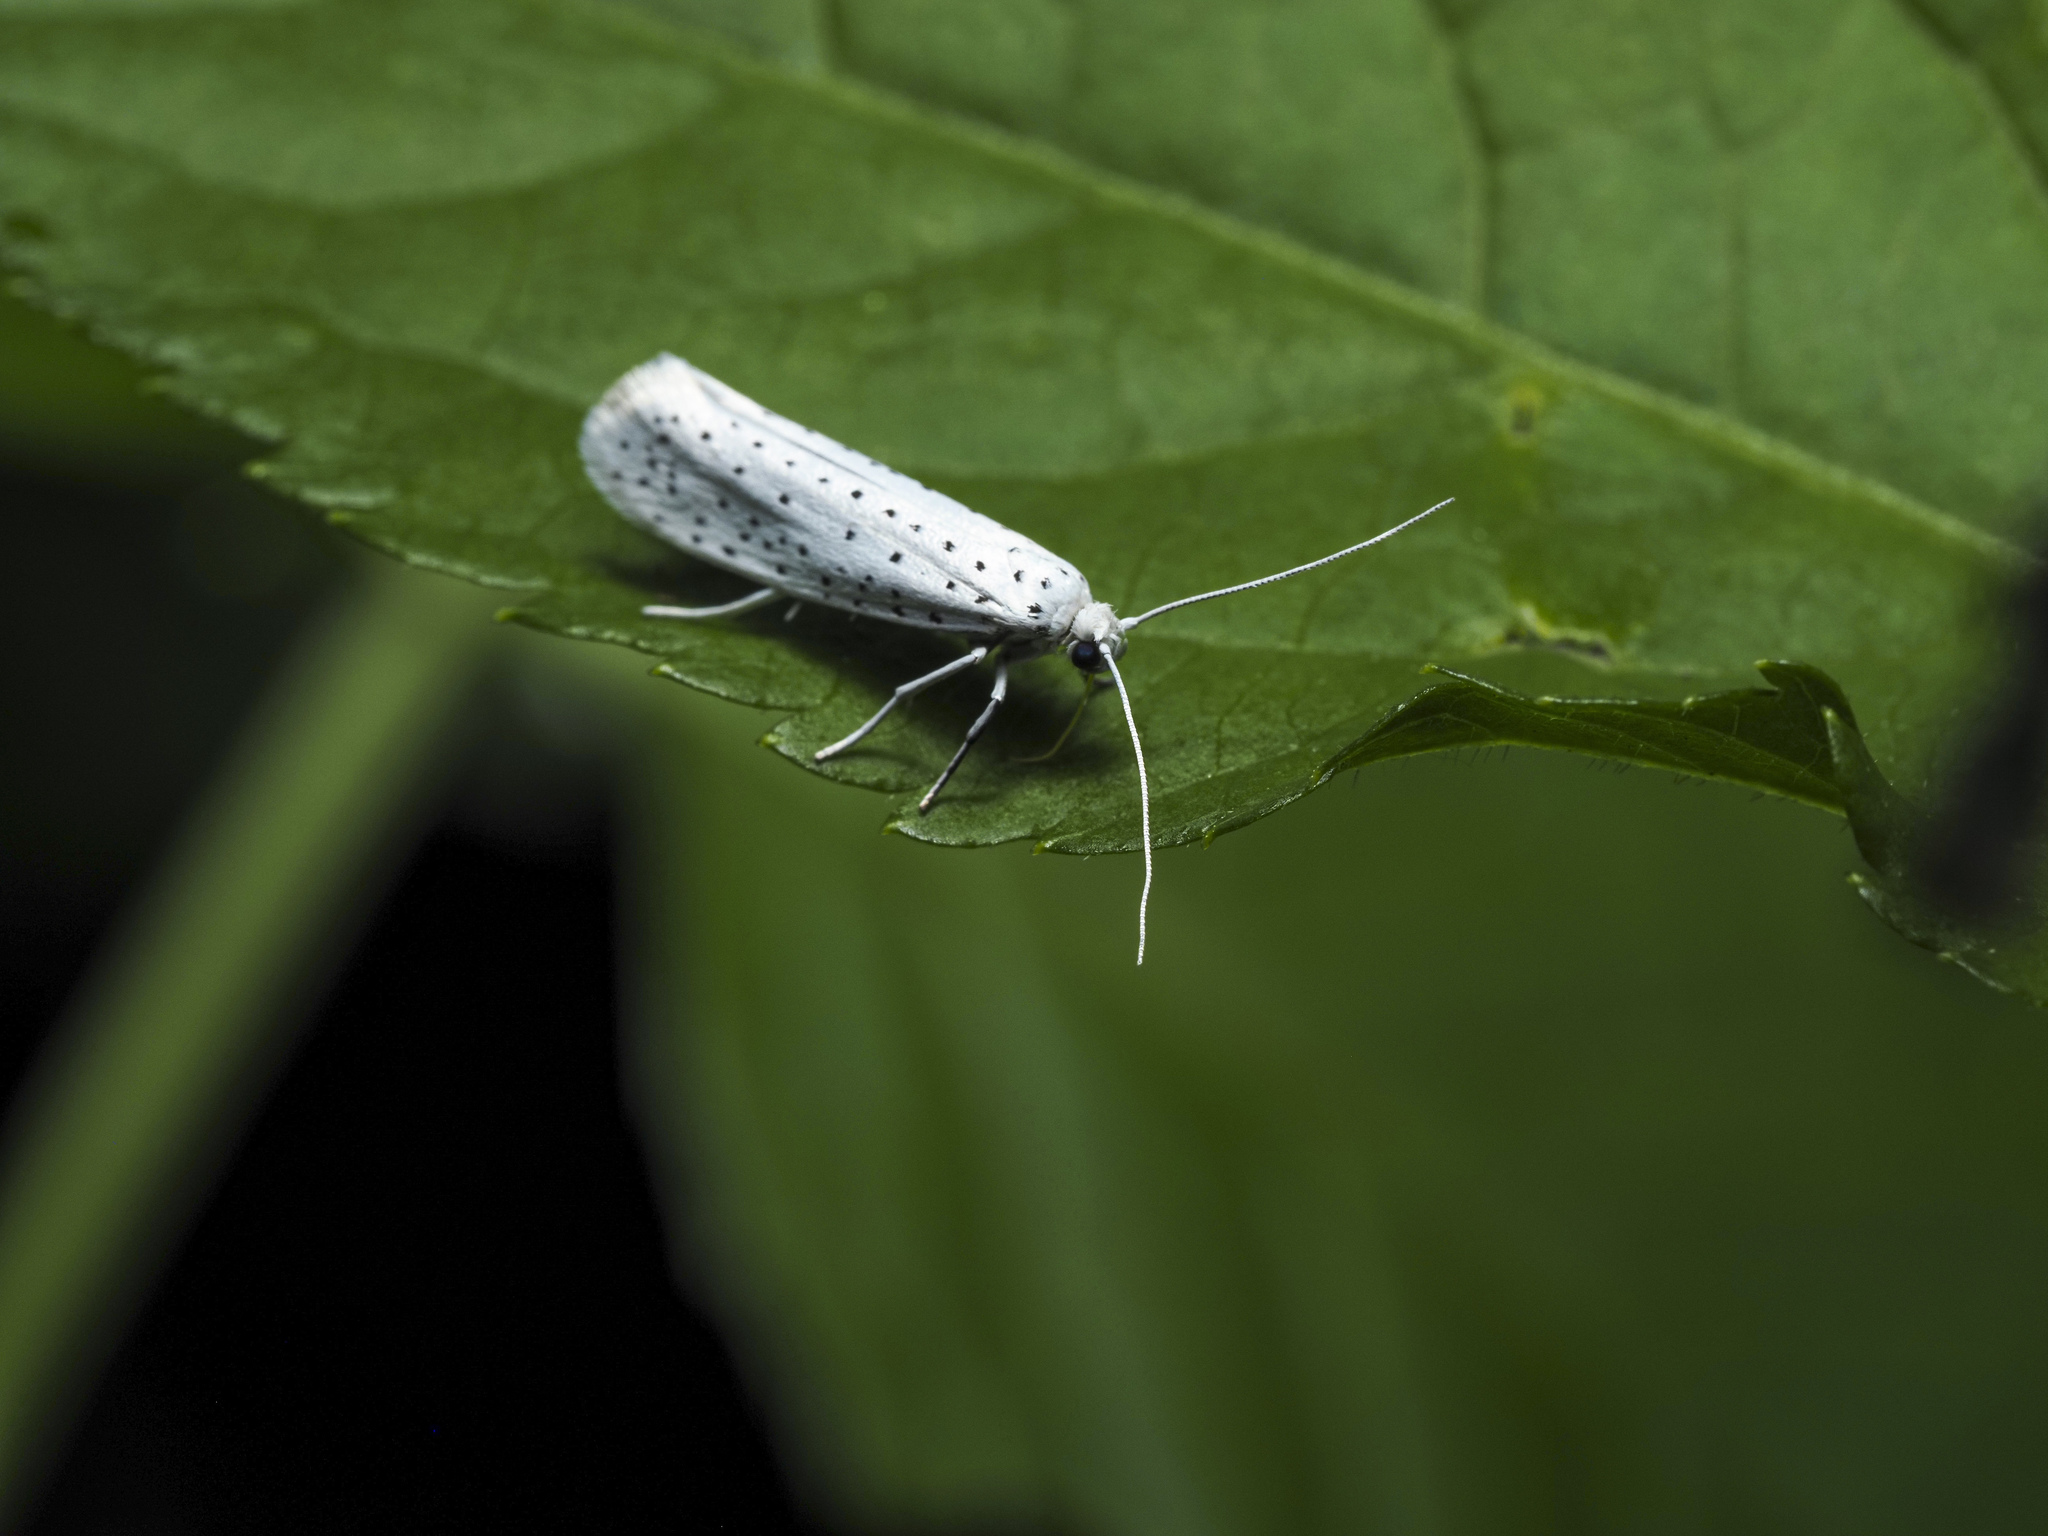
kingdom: Animalia
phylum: Arthropoda
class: Insecta
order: Lepidoptera
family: Yponomeutidae
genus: Yponomeuta
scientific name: Yponomeuta evonymella
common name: Bird-cherry ermine
